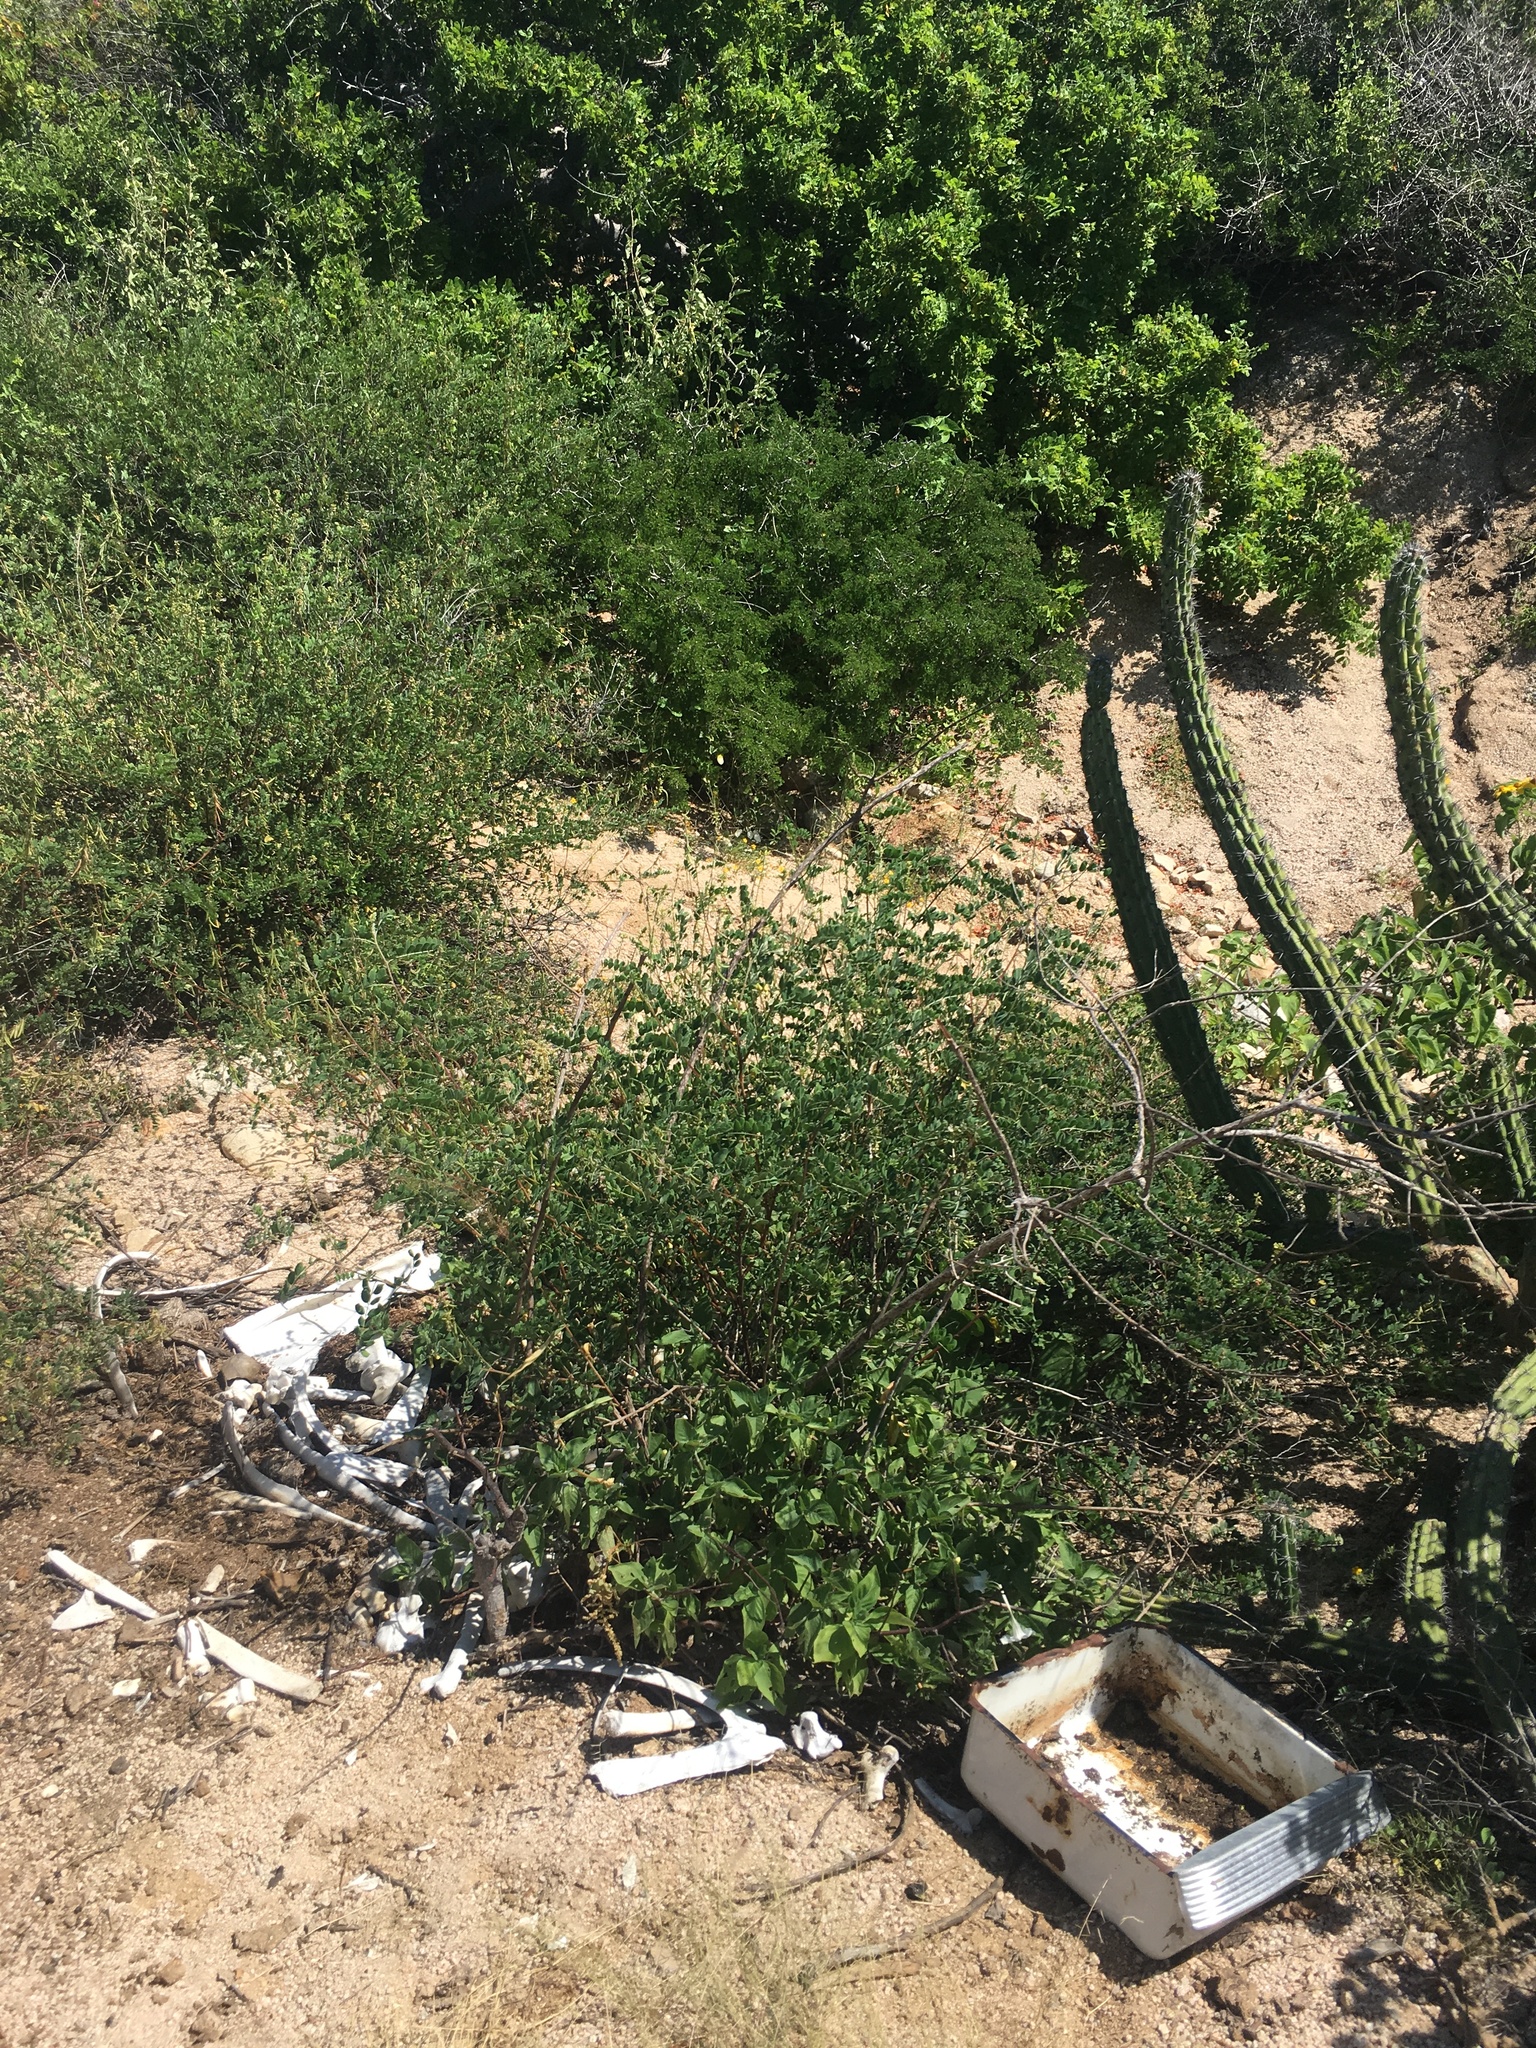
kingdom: Plantae
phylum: Tracheophyta
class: Magnoliopsida
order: Caryophyllales
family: Cactaceae
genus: Stenocereus
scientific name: Stenocereus gummosus
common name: Dagger cactus
